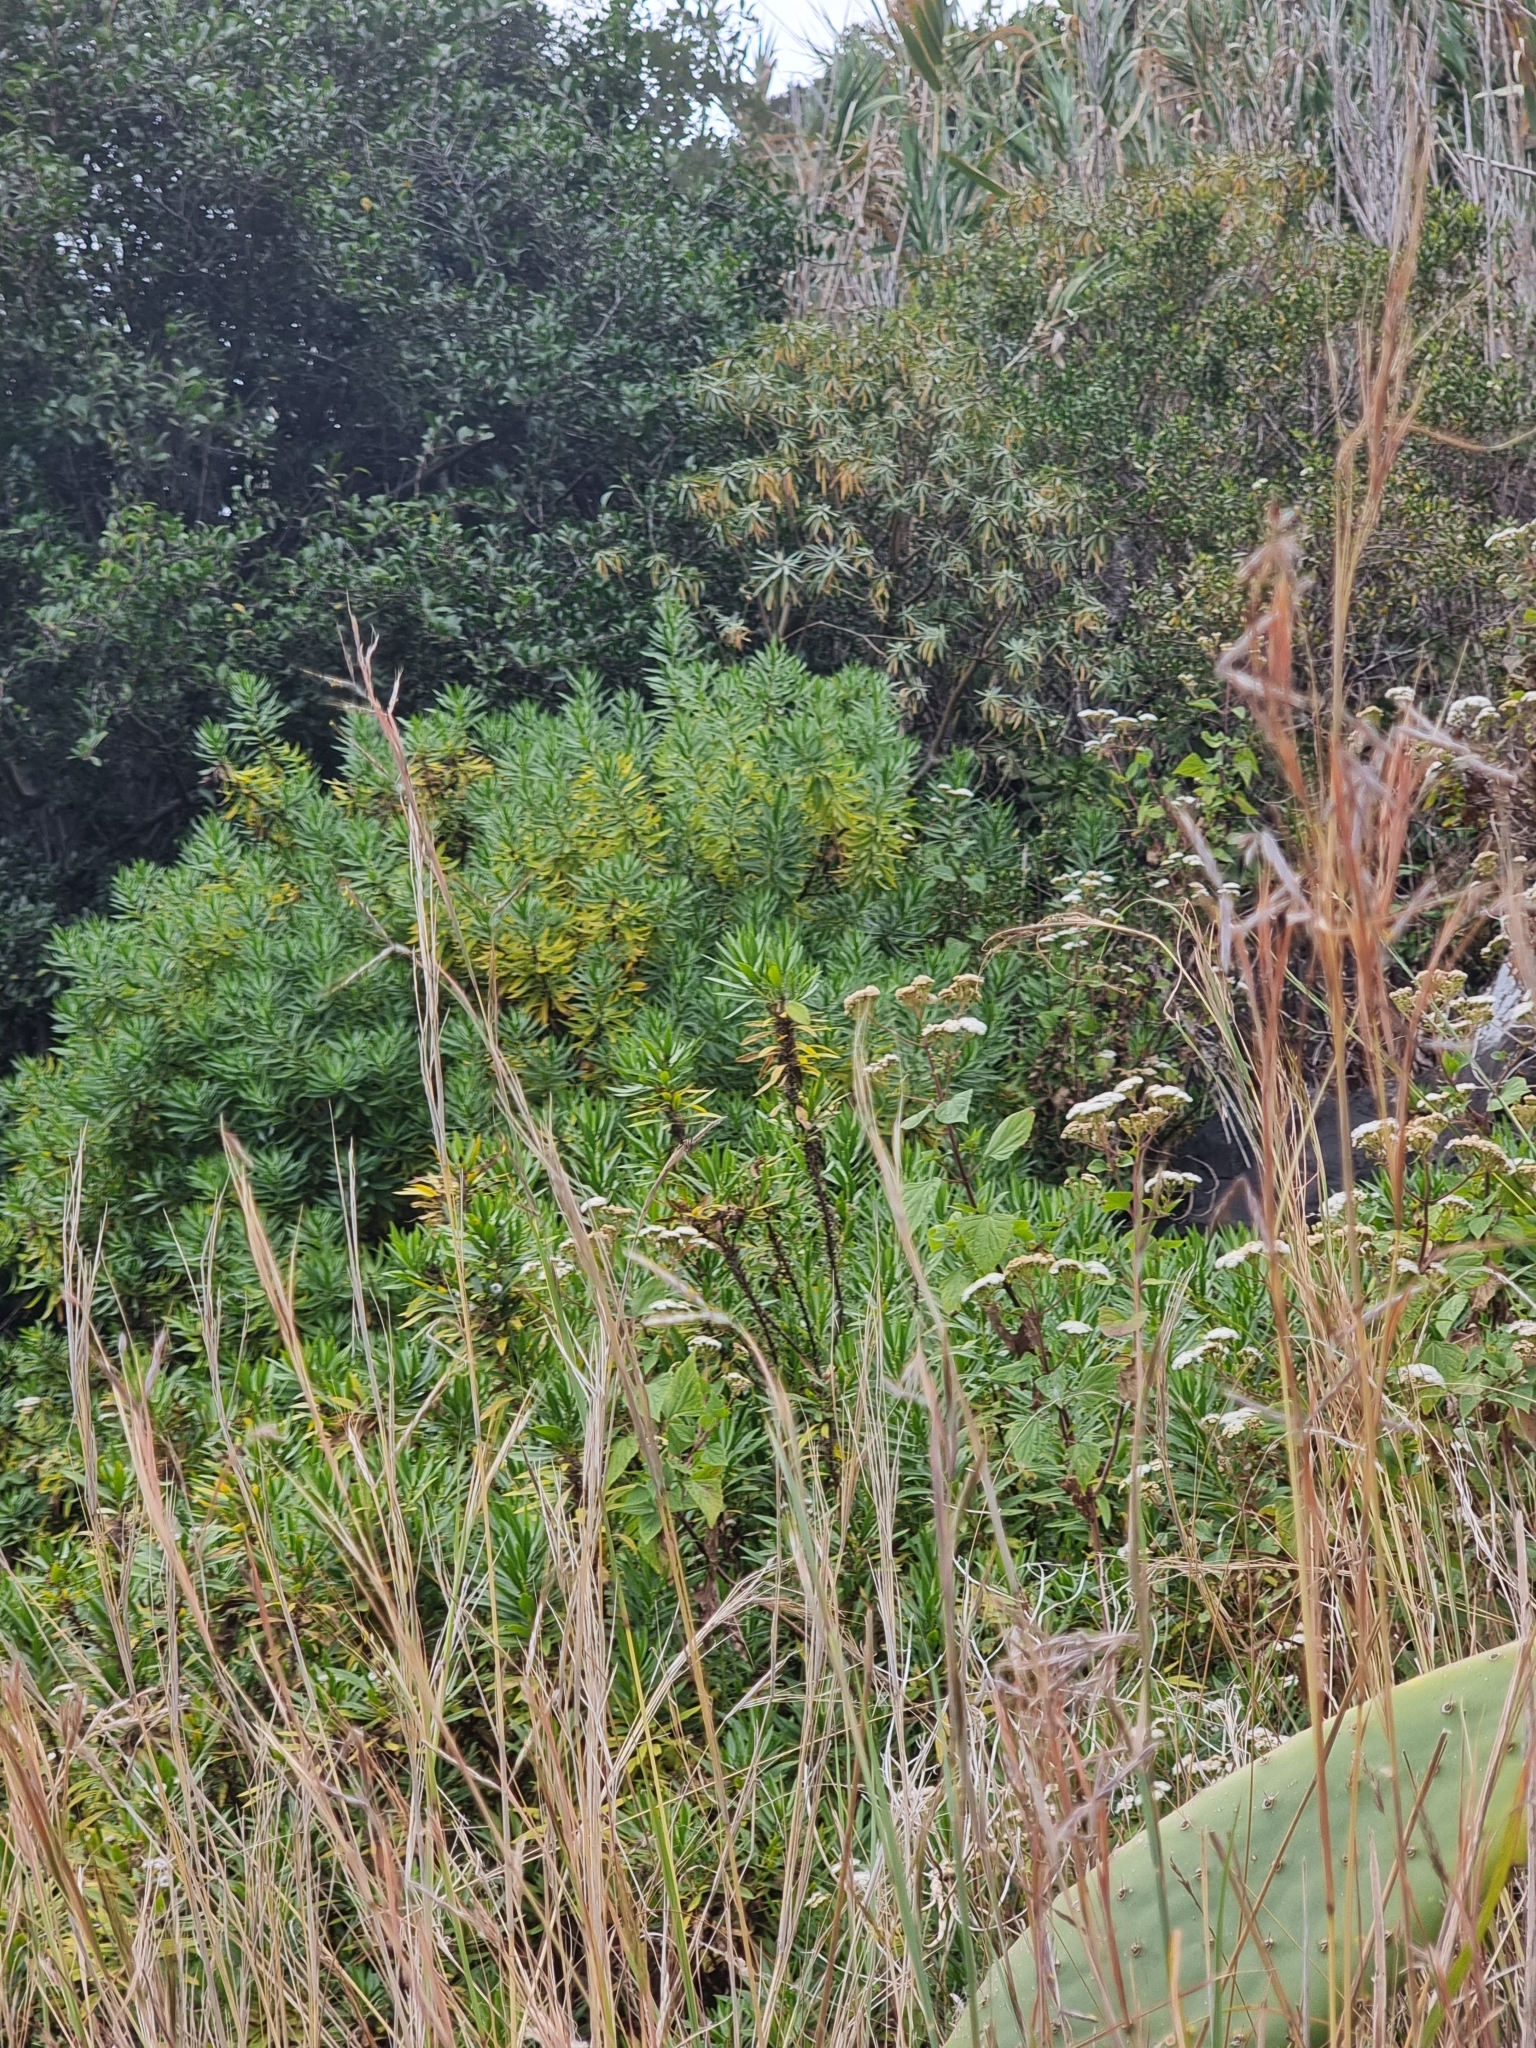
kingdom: Plantae
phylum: Tracheophyta
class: Magnoliopsida
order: Lamiales
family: Plantaginaceae
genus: Globularia
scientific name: Globularia salicina
